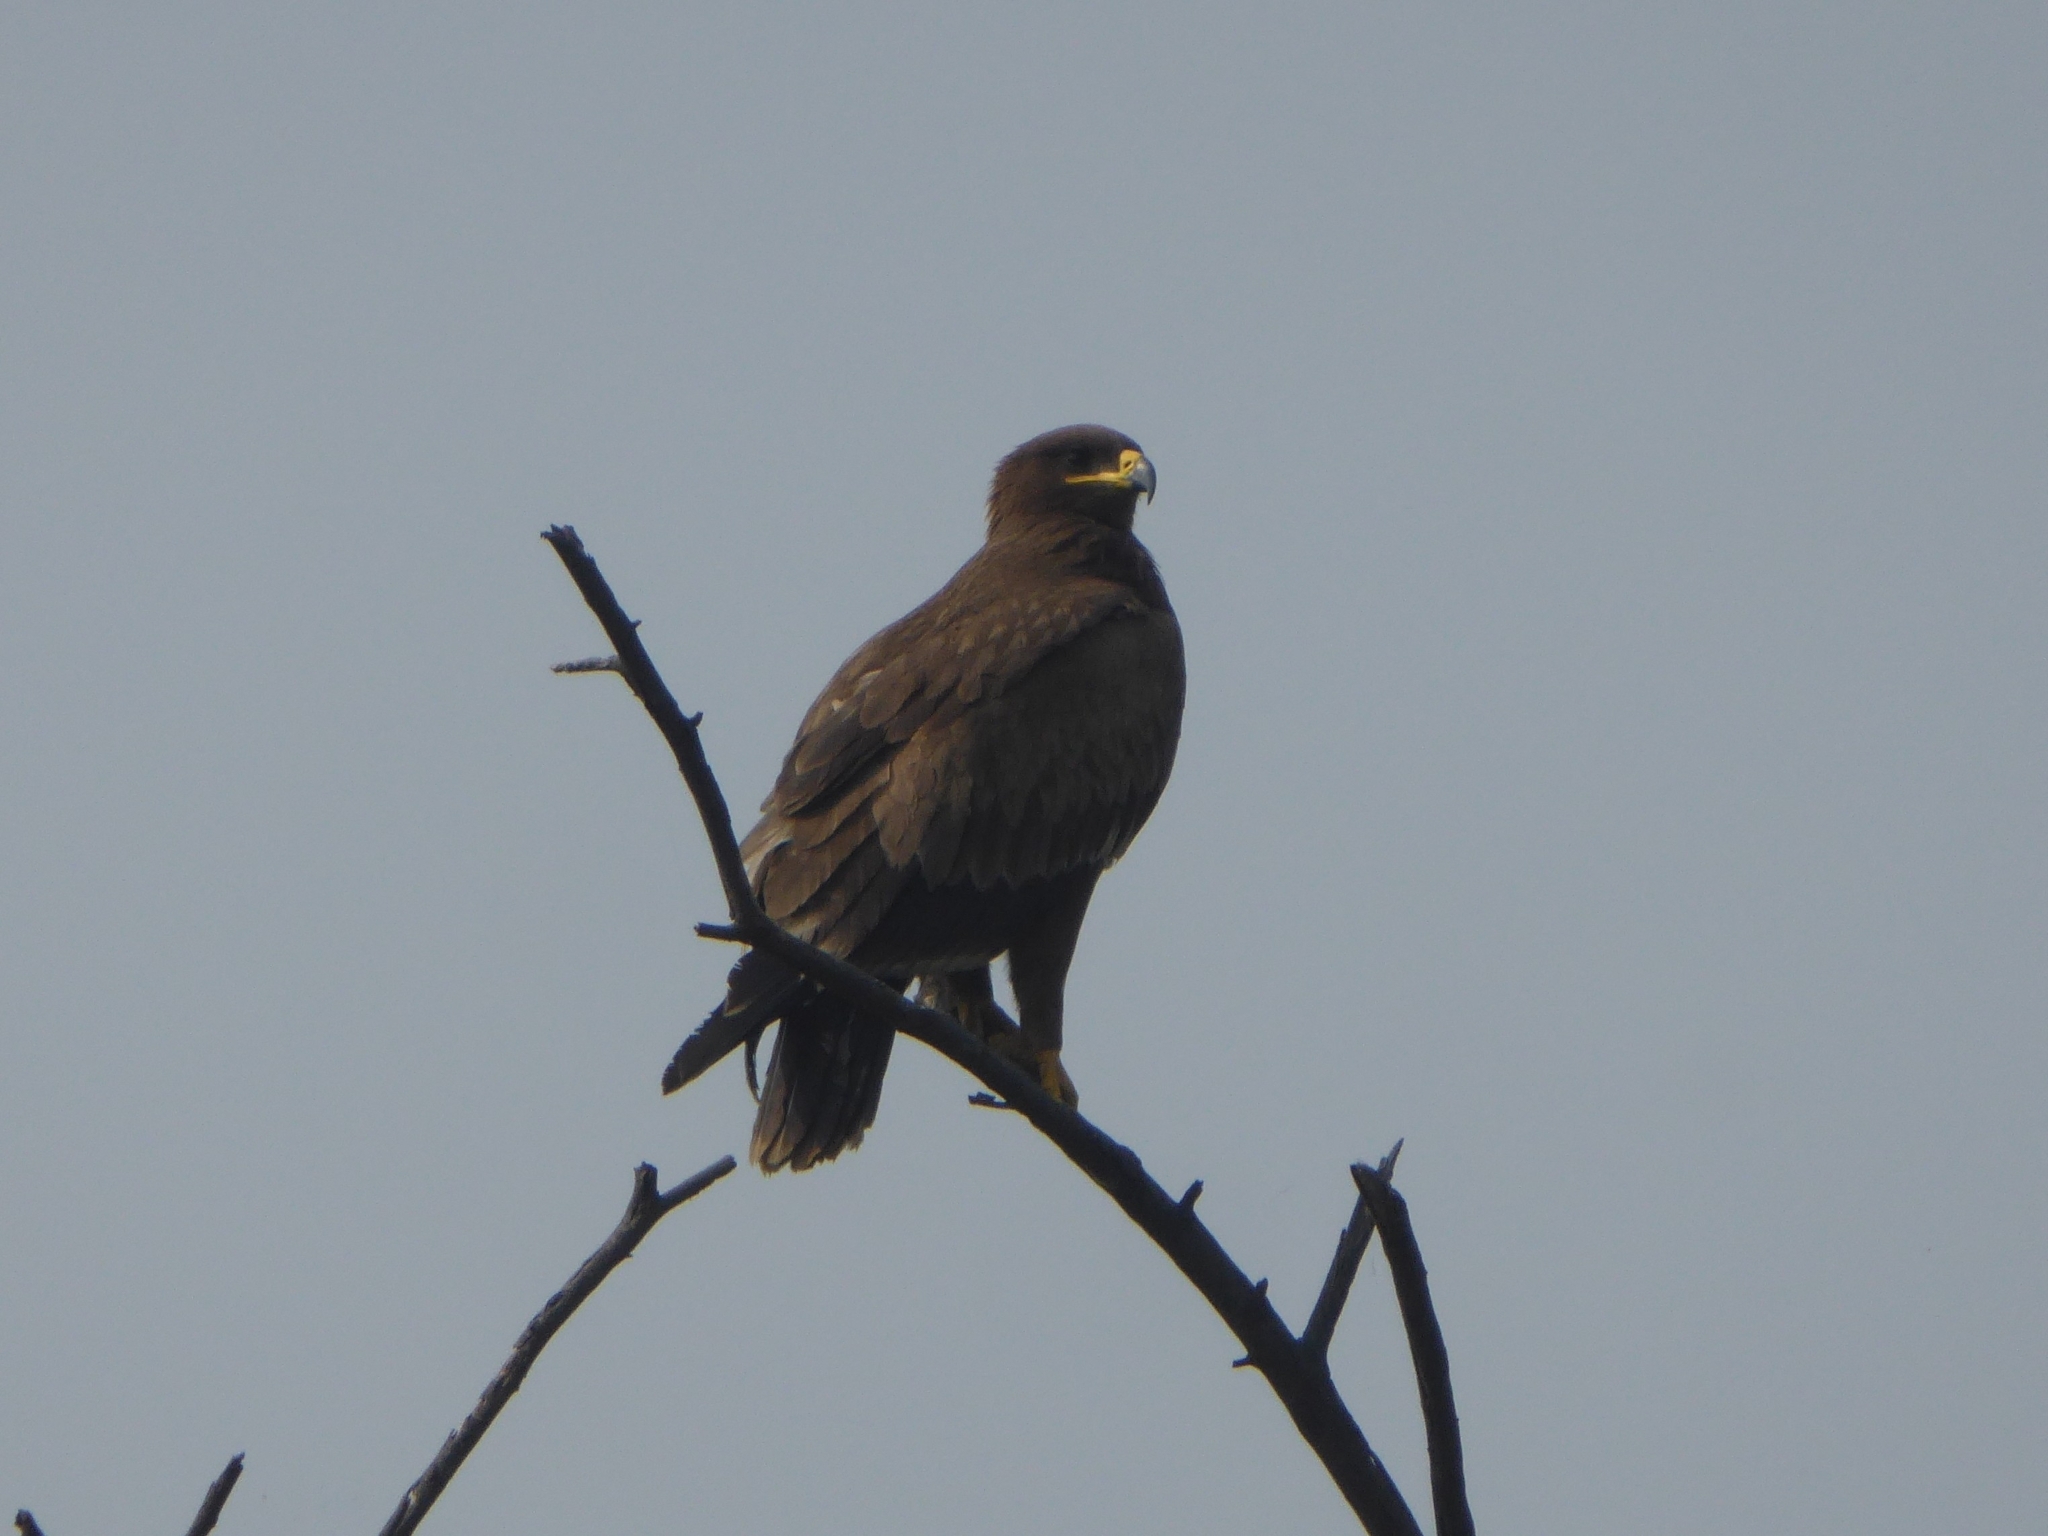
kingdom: Animalia
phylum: Chordata
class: Aves
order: Accipitriformes
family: Accipitridae
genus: Aquila
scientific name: Aquila nipalensis
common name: Steppe eagle
